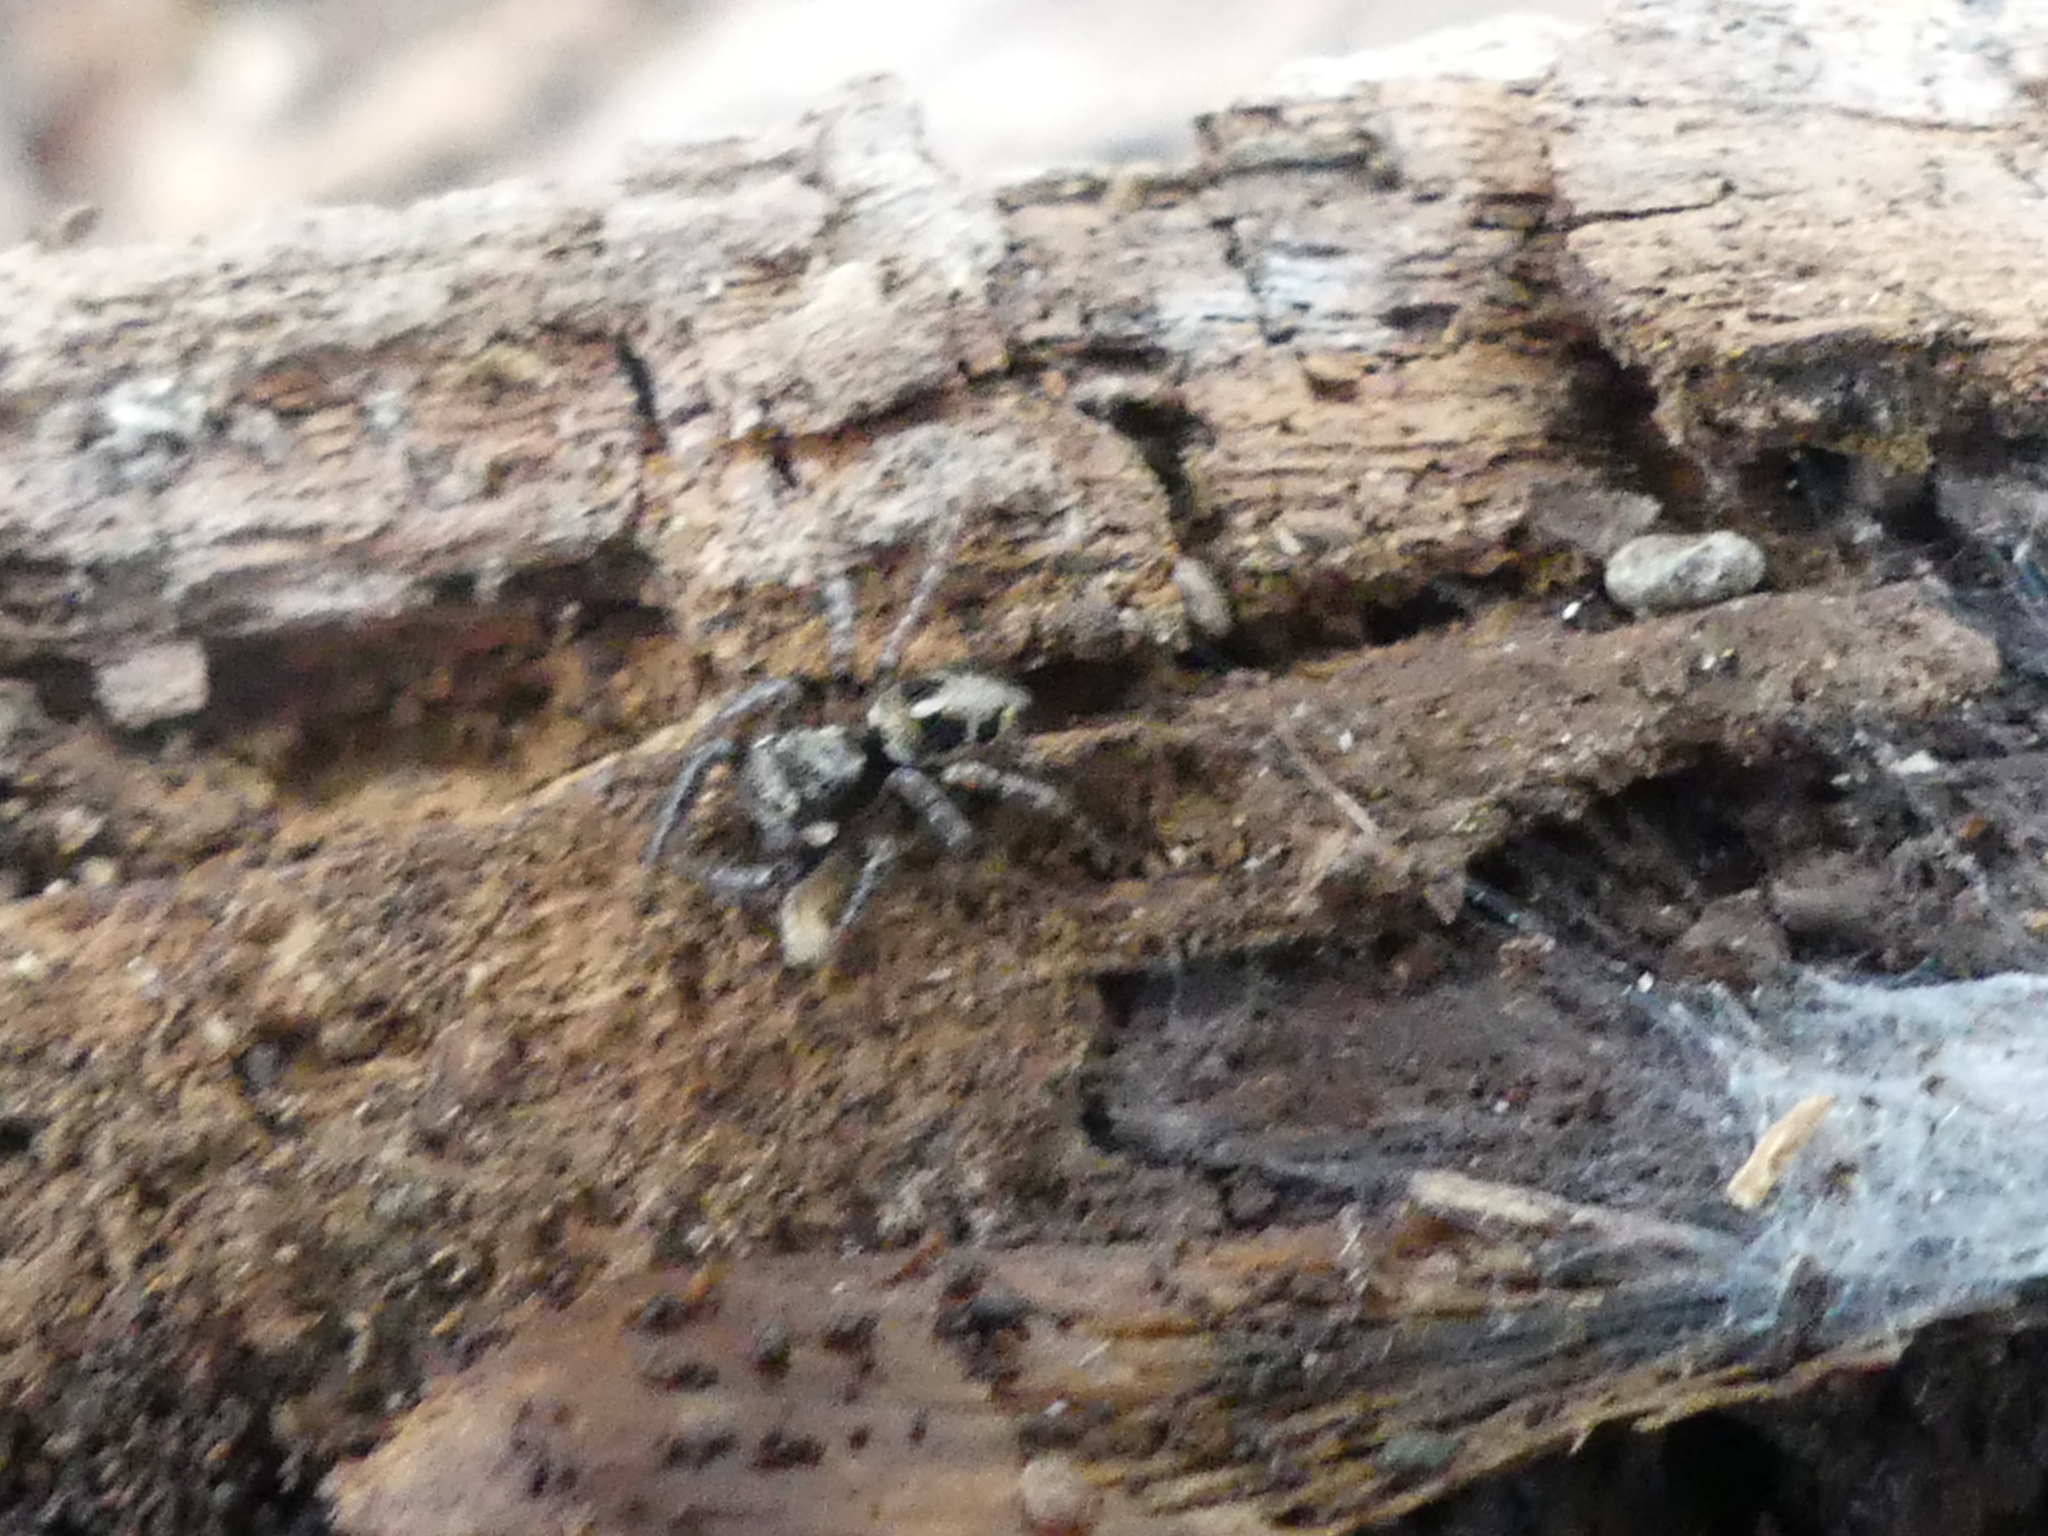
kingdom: Animalia
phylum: Arthropoda
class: Arachnida
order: Araneae
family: Salticidae
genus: Anasaitis
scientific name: Anasaitis canosa
